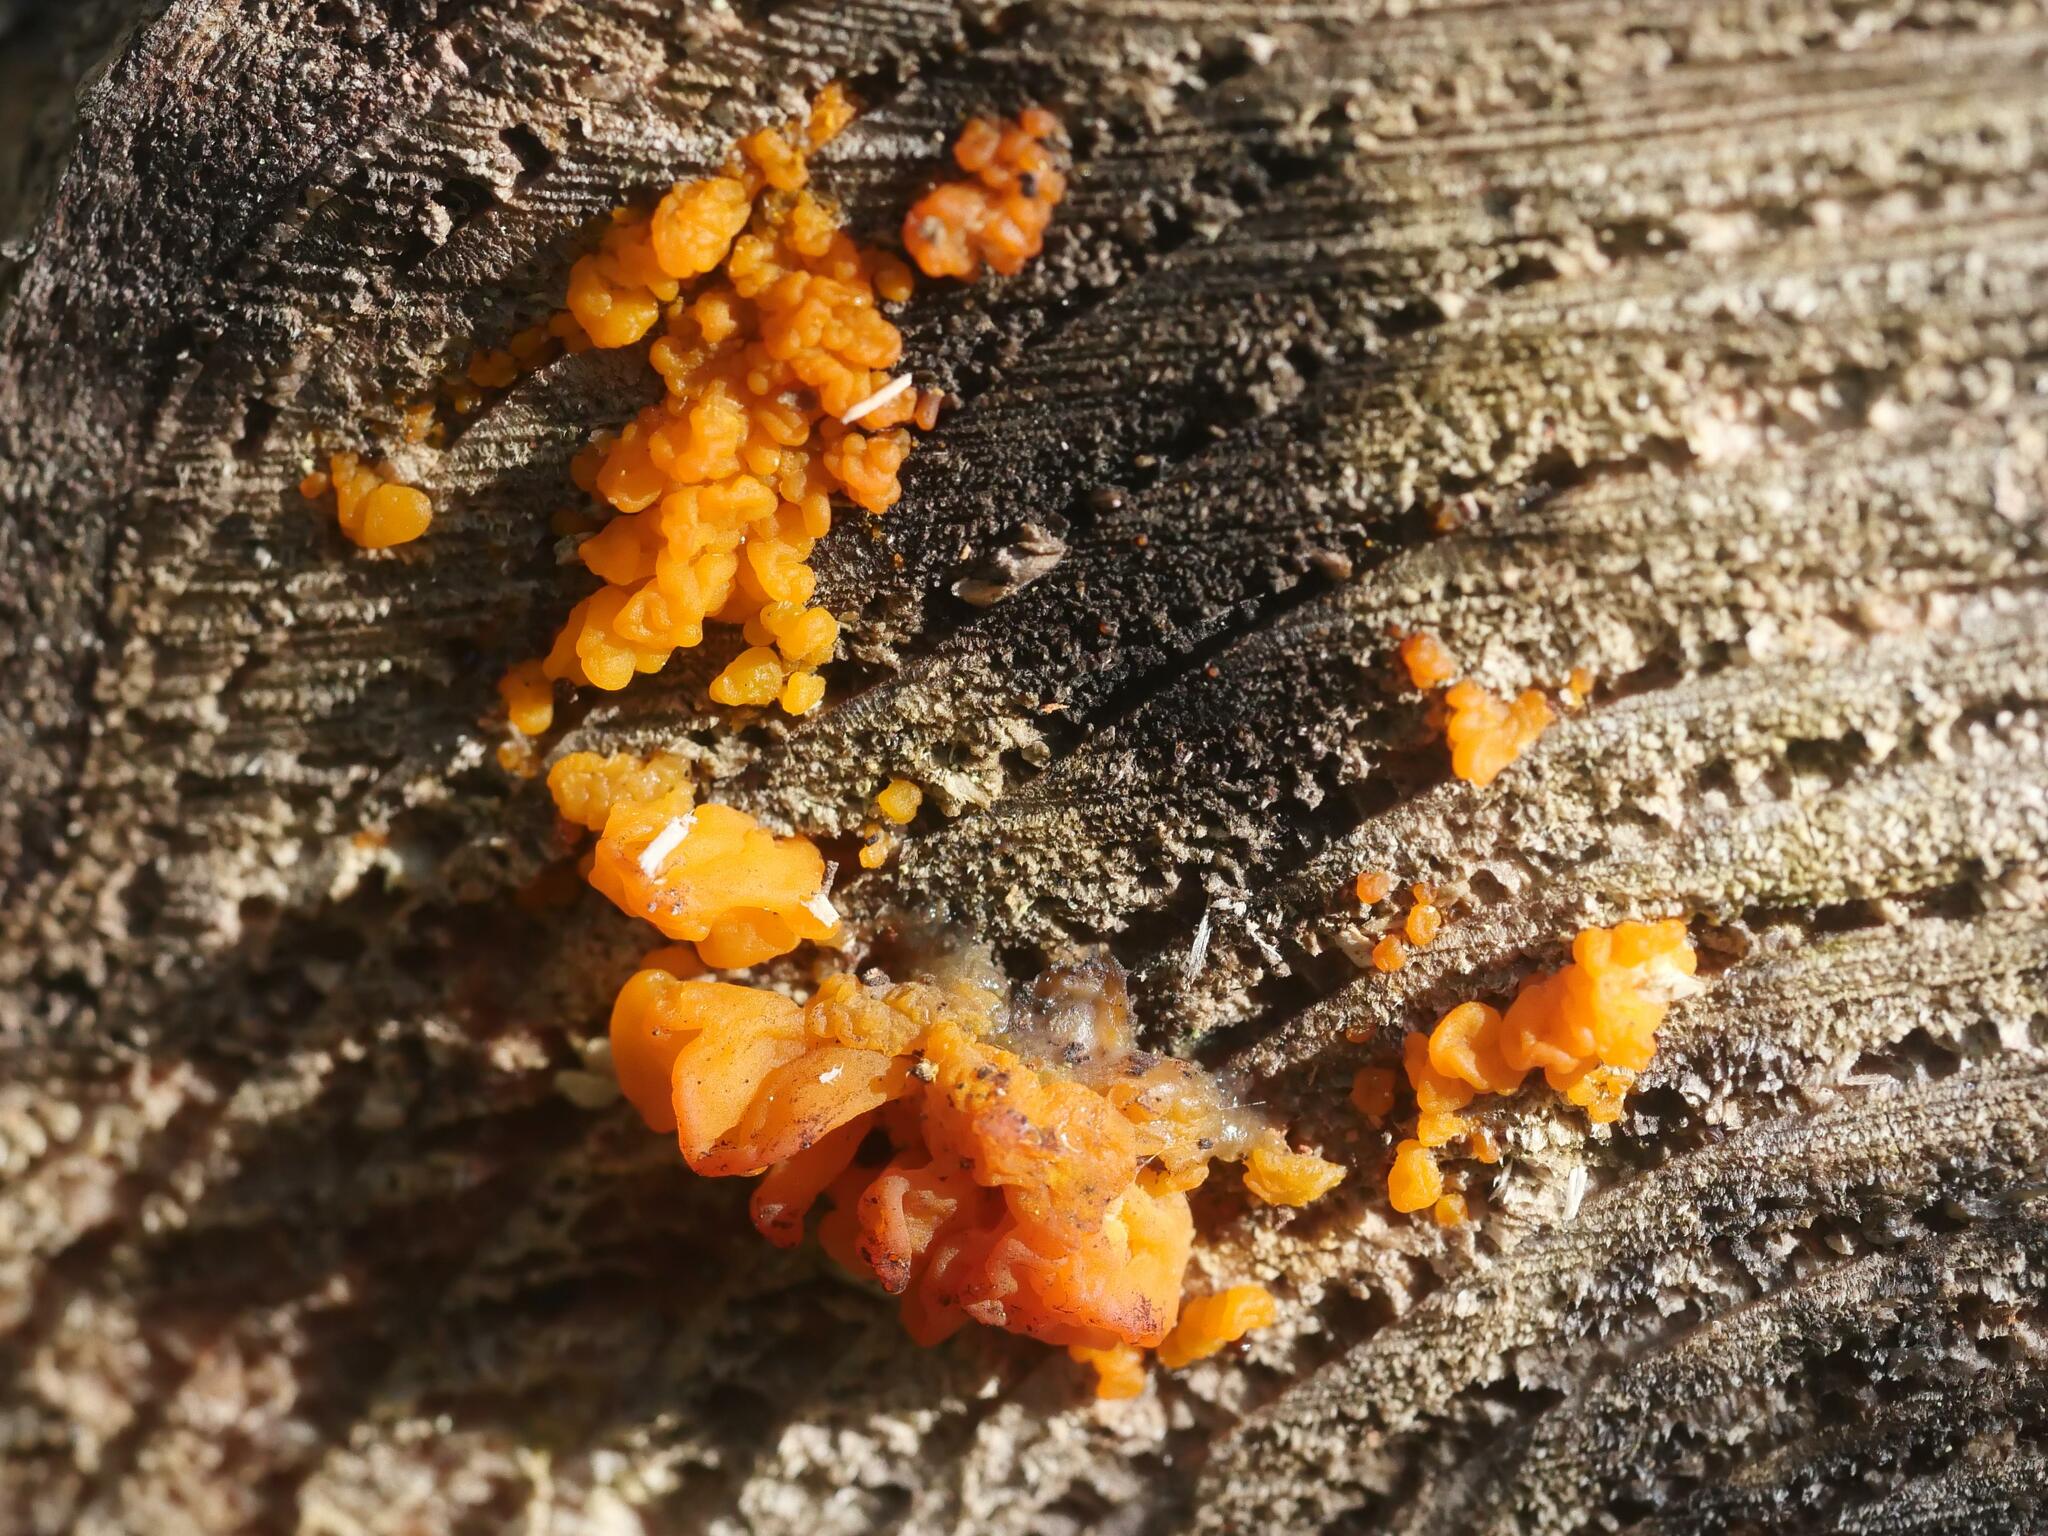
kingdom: Fungi
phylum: Basidiomycota
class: Dacrymycetes
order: Dacrymycetales
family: Dacrymycetaceae
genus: Dacrymyces
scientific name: Dacrymyces chrysospermus
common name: Orange jelly spot
